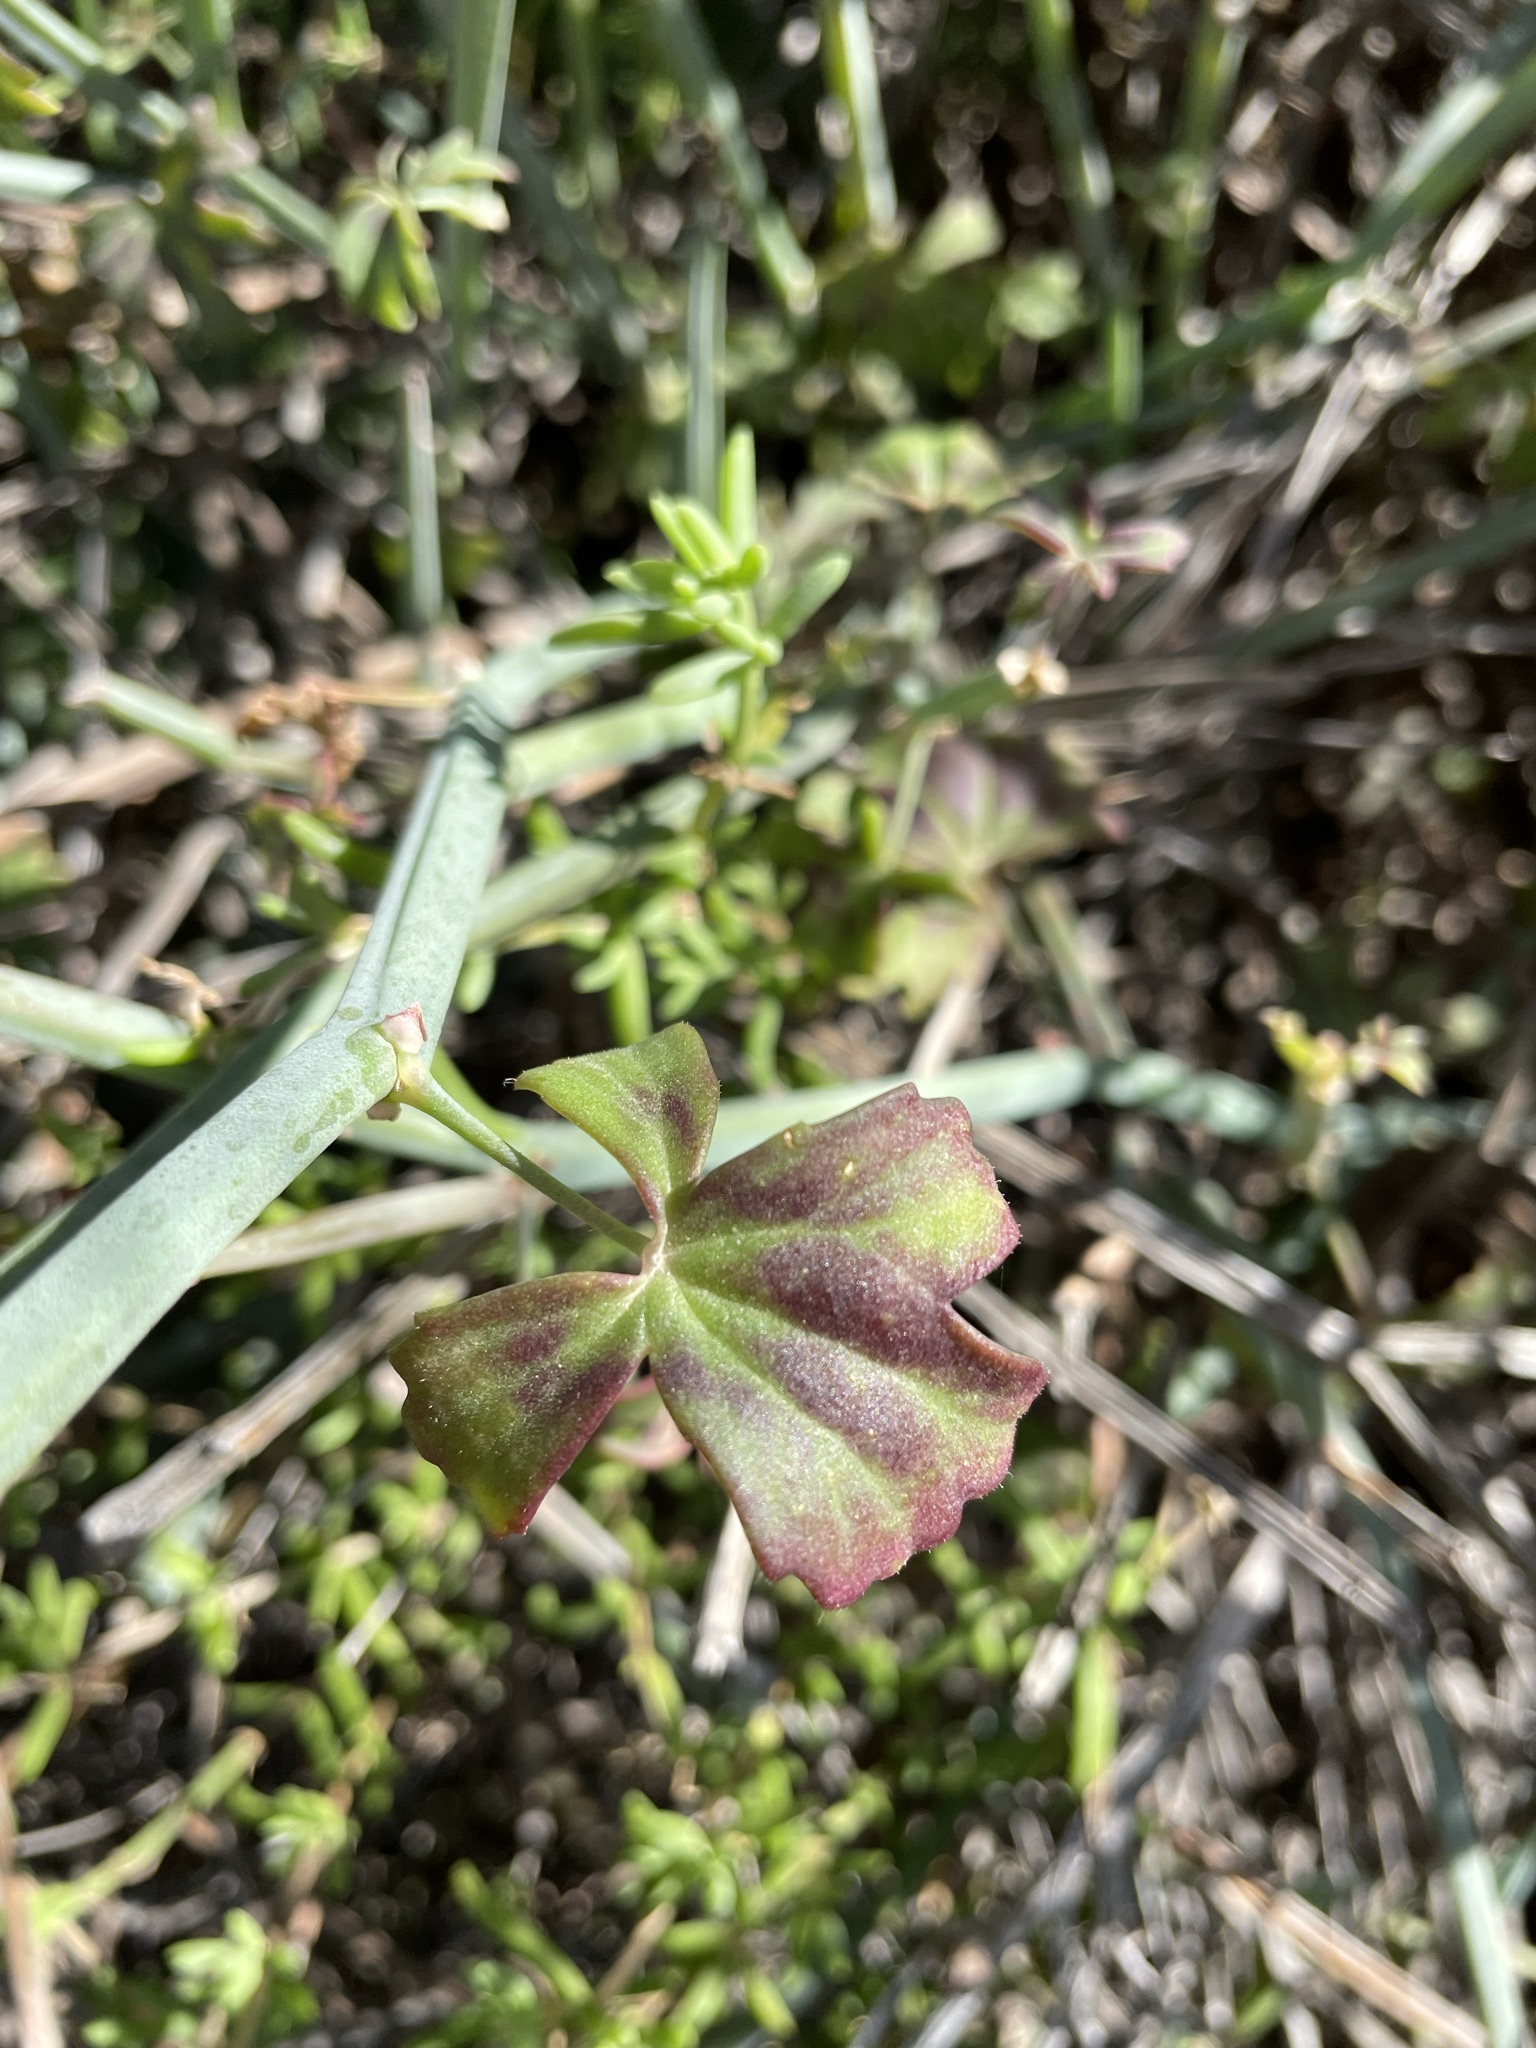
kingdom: Plantae
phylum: Tracheophyta
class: Magnoliopsida
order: Geraniales
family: Geraniaceae
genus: Pelargonium
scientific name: Pelargonium trifidum
